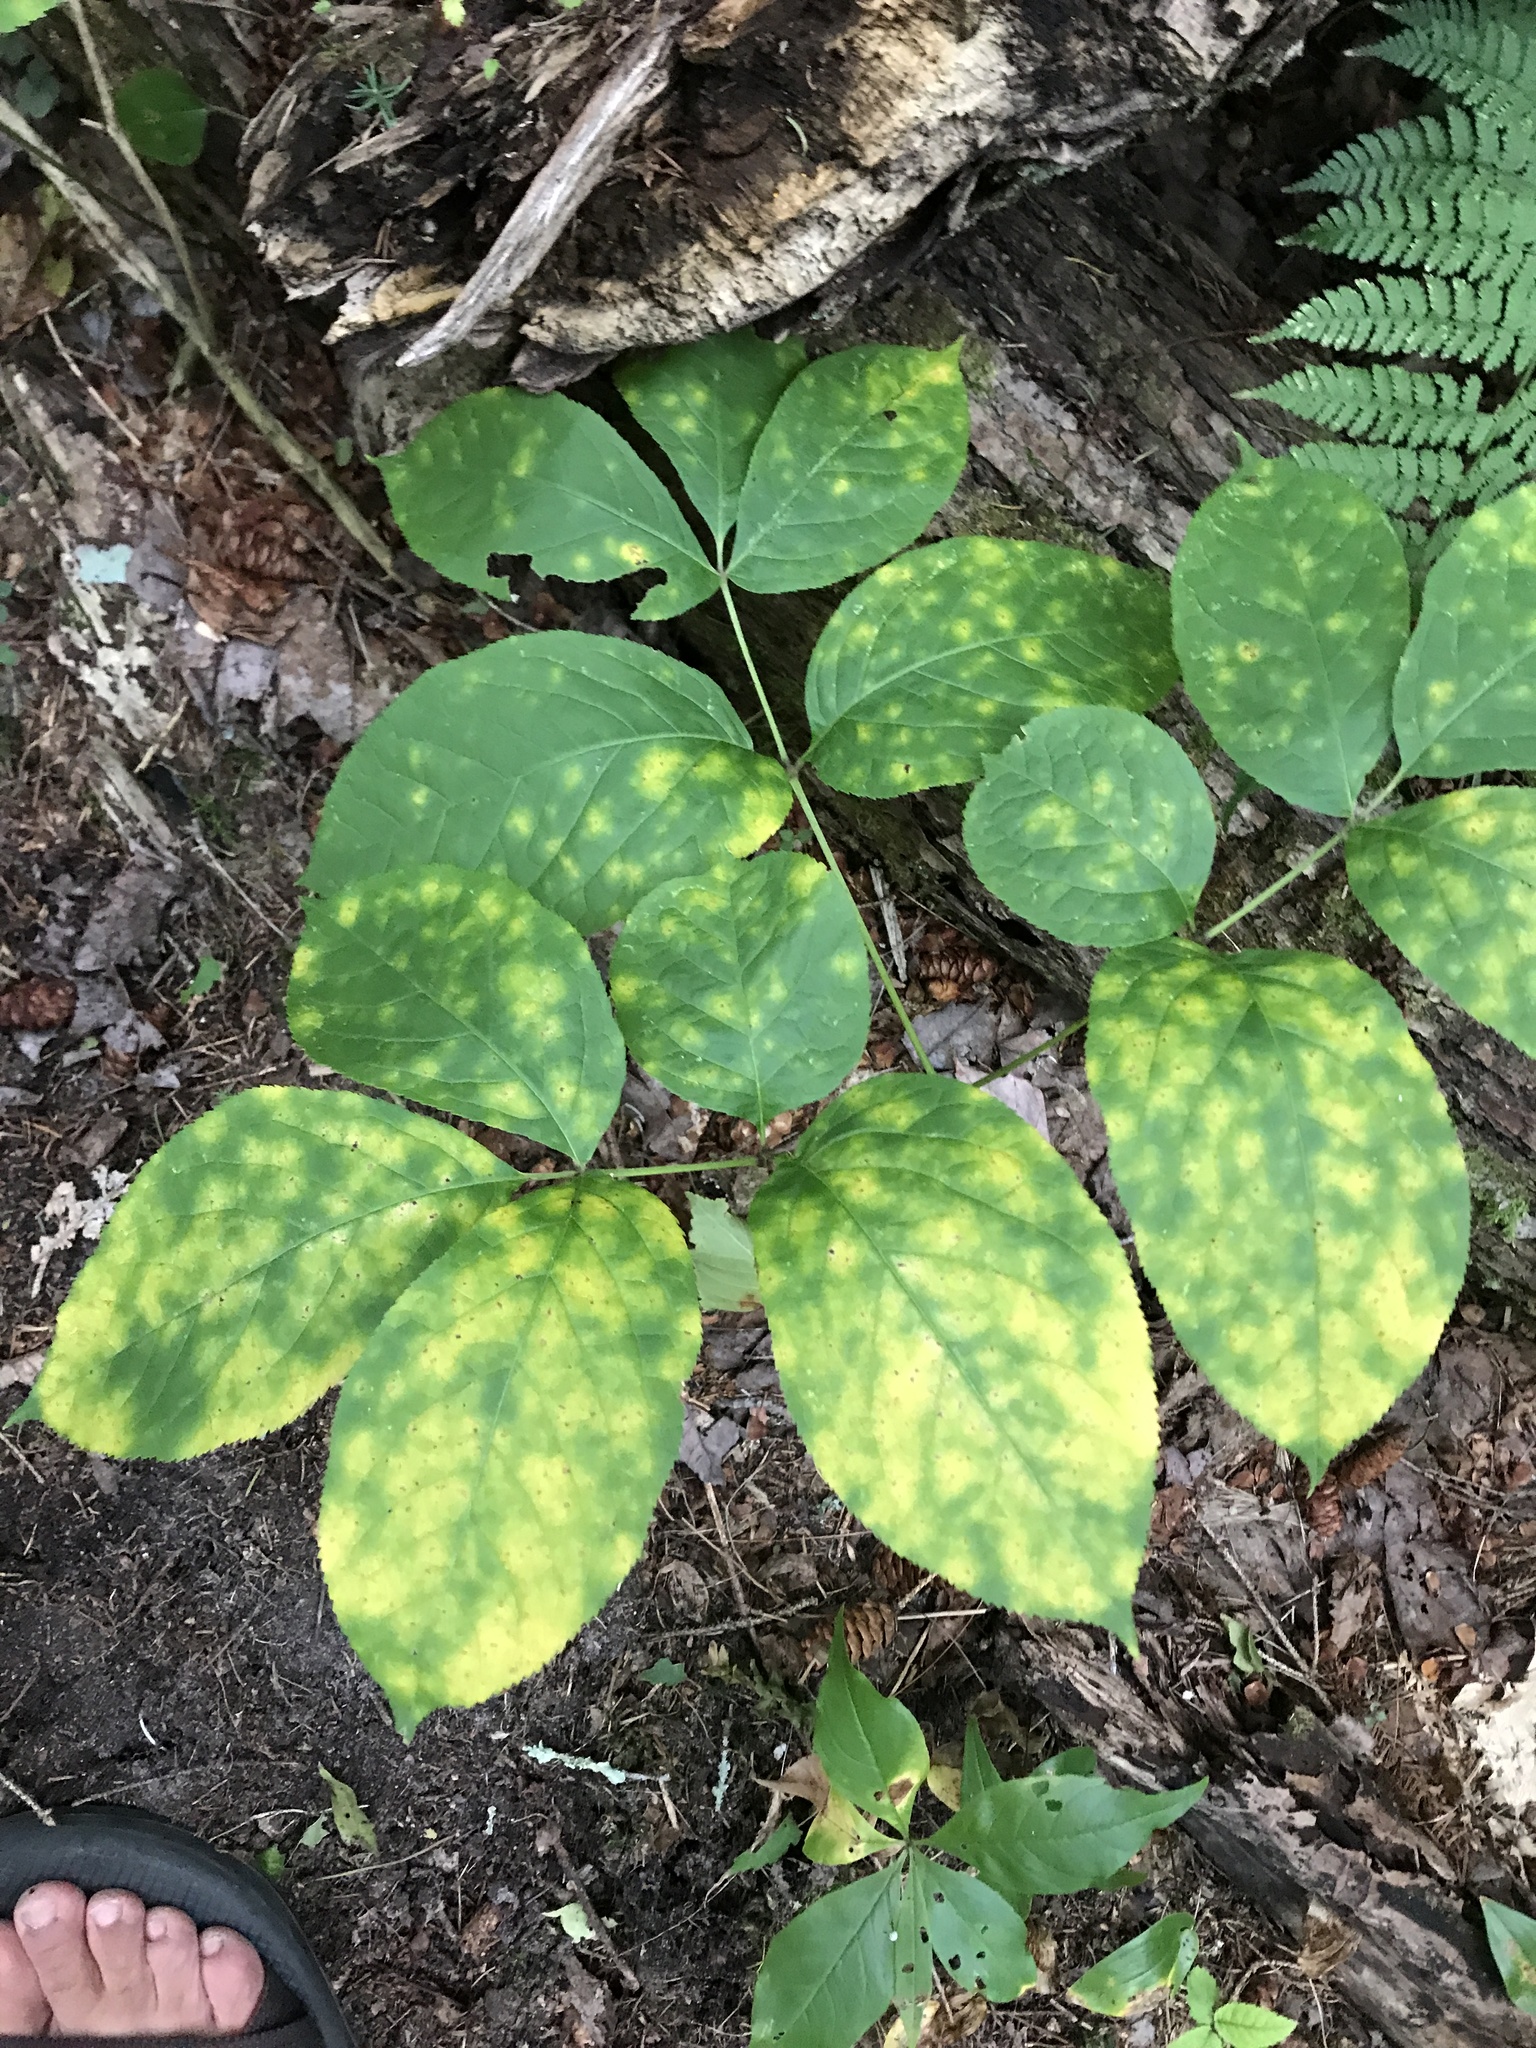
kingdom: Plantae
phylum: Tracheophyta
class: Magnoliopsida
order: Apiales
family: Araliaceae
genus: Aralia
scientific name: Aralia nudicaulis
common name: Wild sarsaparilla
